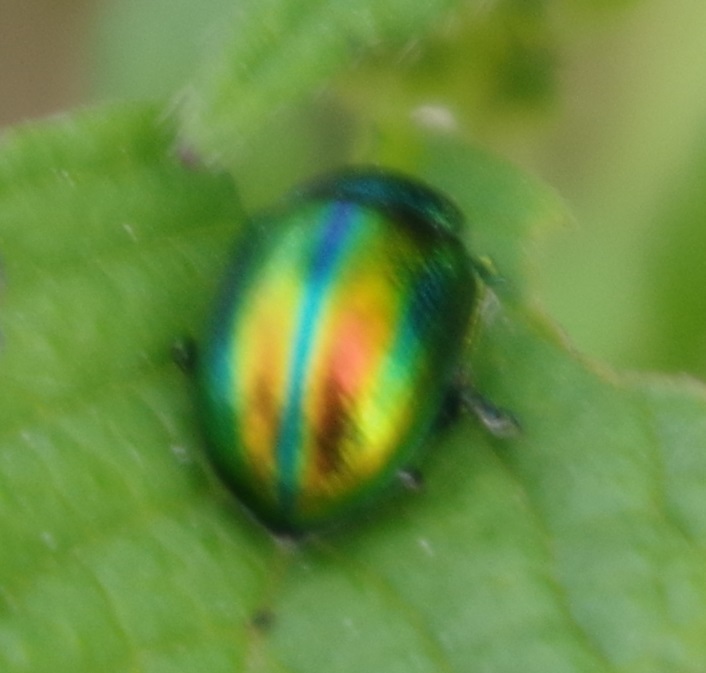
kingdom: Animalia
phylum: Arthropoda
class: Insecta
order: Coleoptera
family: Chrysomelidae
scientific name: Chrysomelidae
